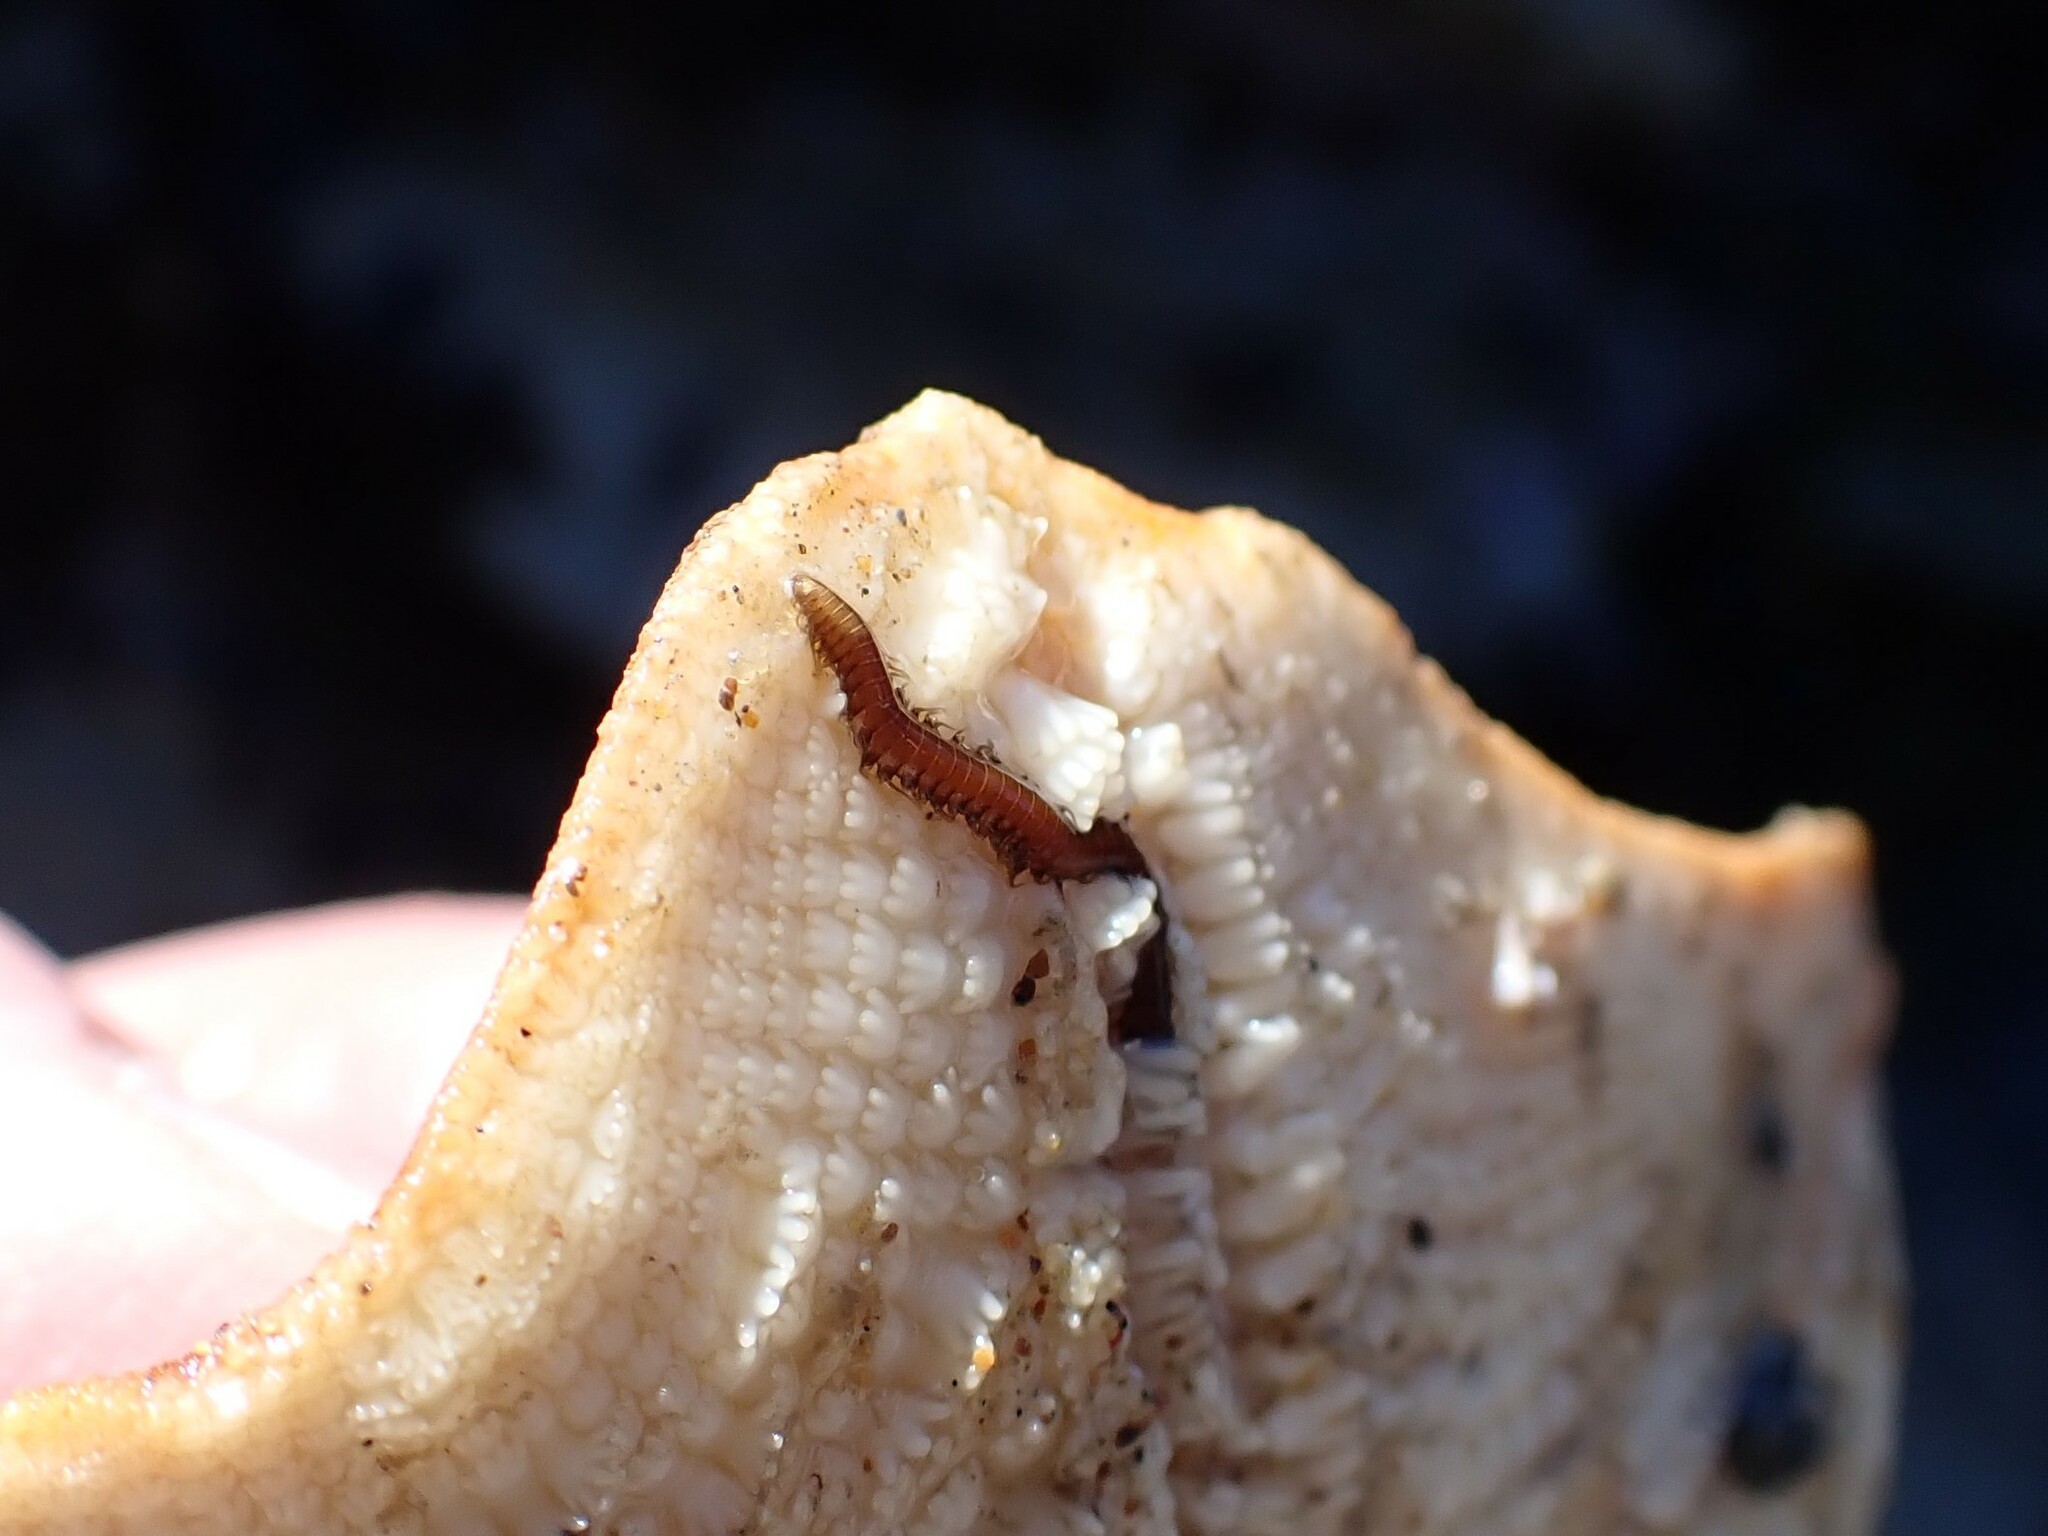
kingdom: Animalia
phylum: Annelida
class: Polychaeta
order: Phyllodocida
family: Hesionidae
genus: Oxydromus
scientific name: Oxydromus pugettensis
